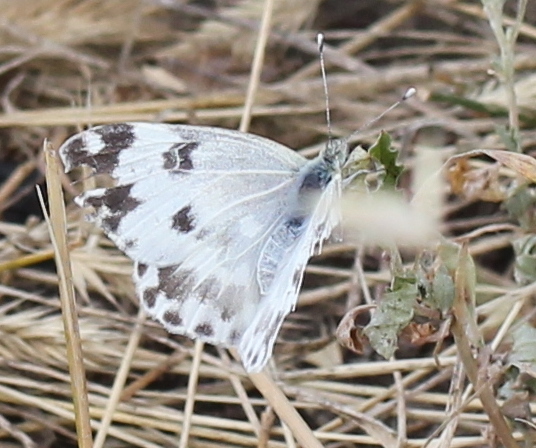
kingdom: Animalia
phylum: Arthropoda
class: Insecta
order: Lepidoptera
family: Pieridae
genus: Pontia
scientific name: Pontia edusa
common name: Eastern bath white
